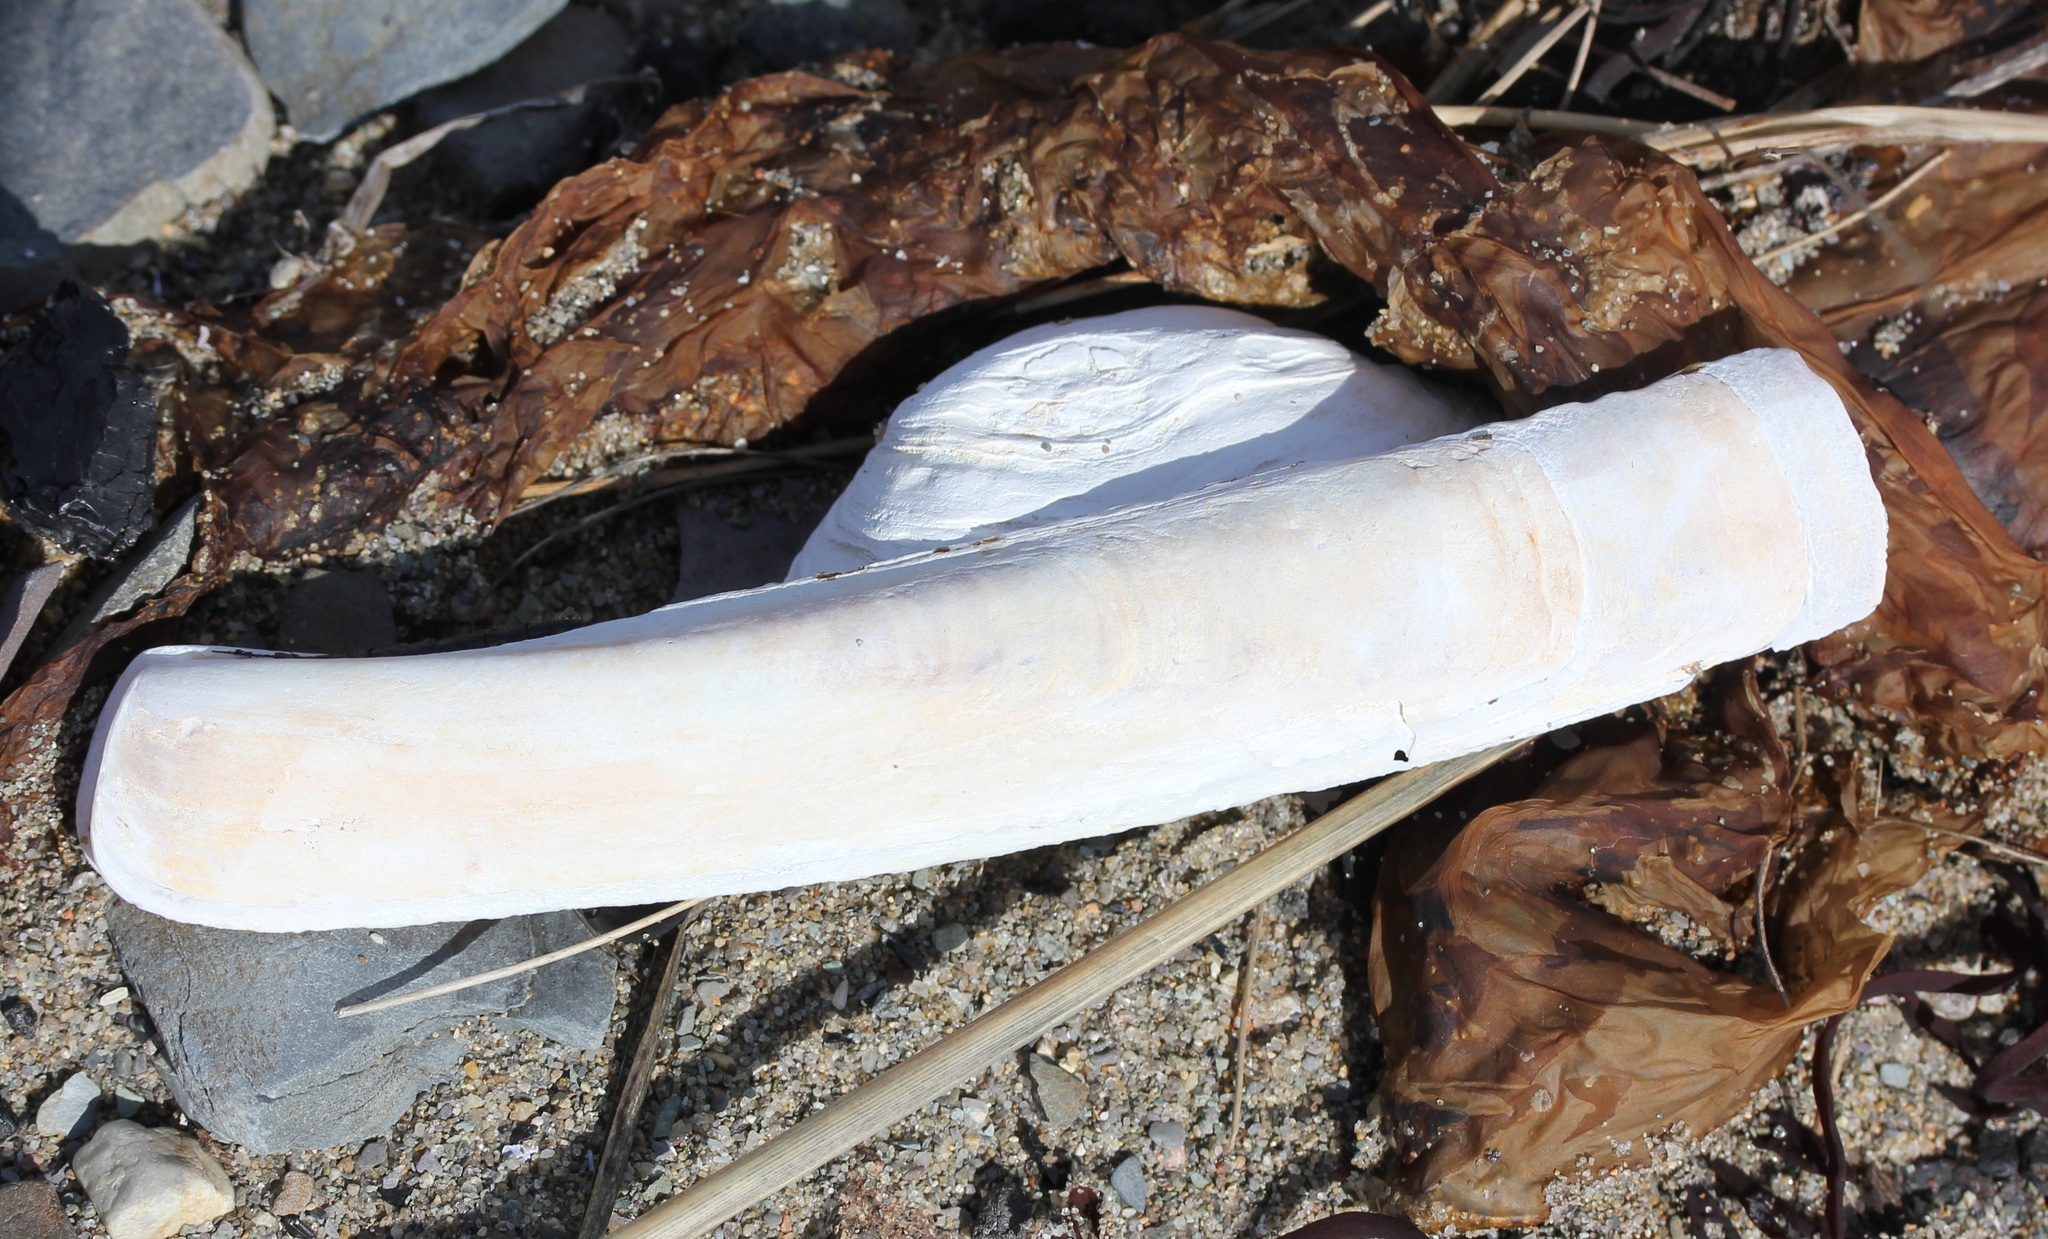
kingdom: Animalia
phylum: Mollusca
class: Bivalvia
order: Adapedonta
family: Pharidae
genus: Ensis
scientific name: Ensis leei
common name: American jack knife clam
